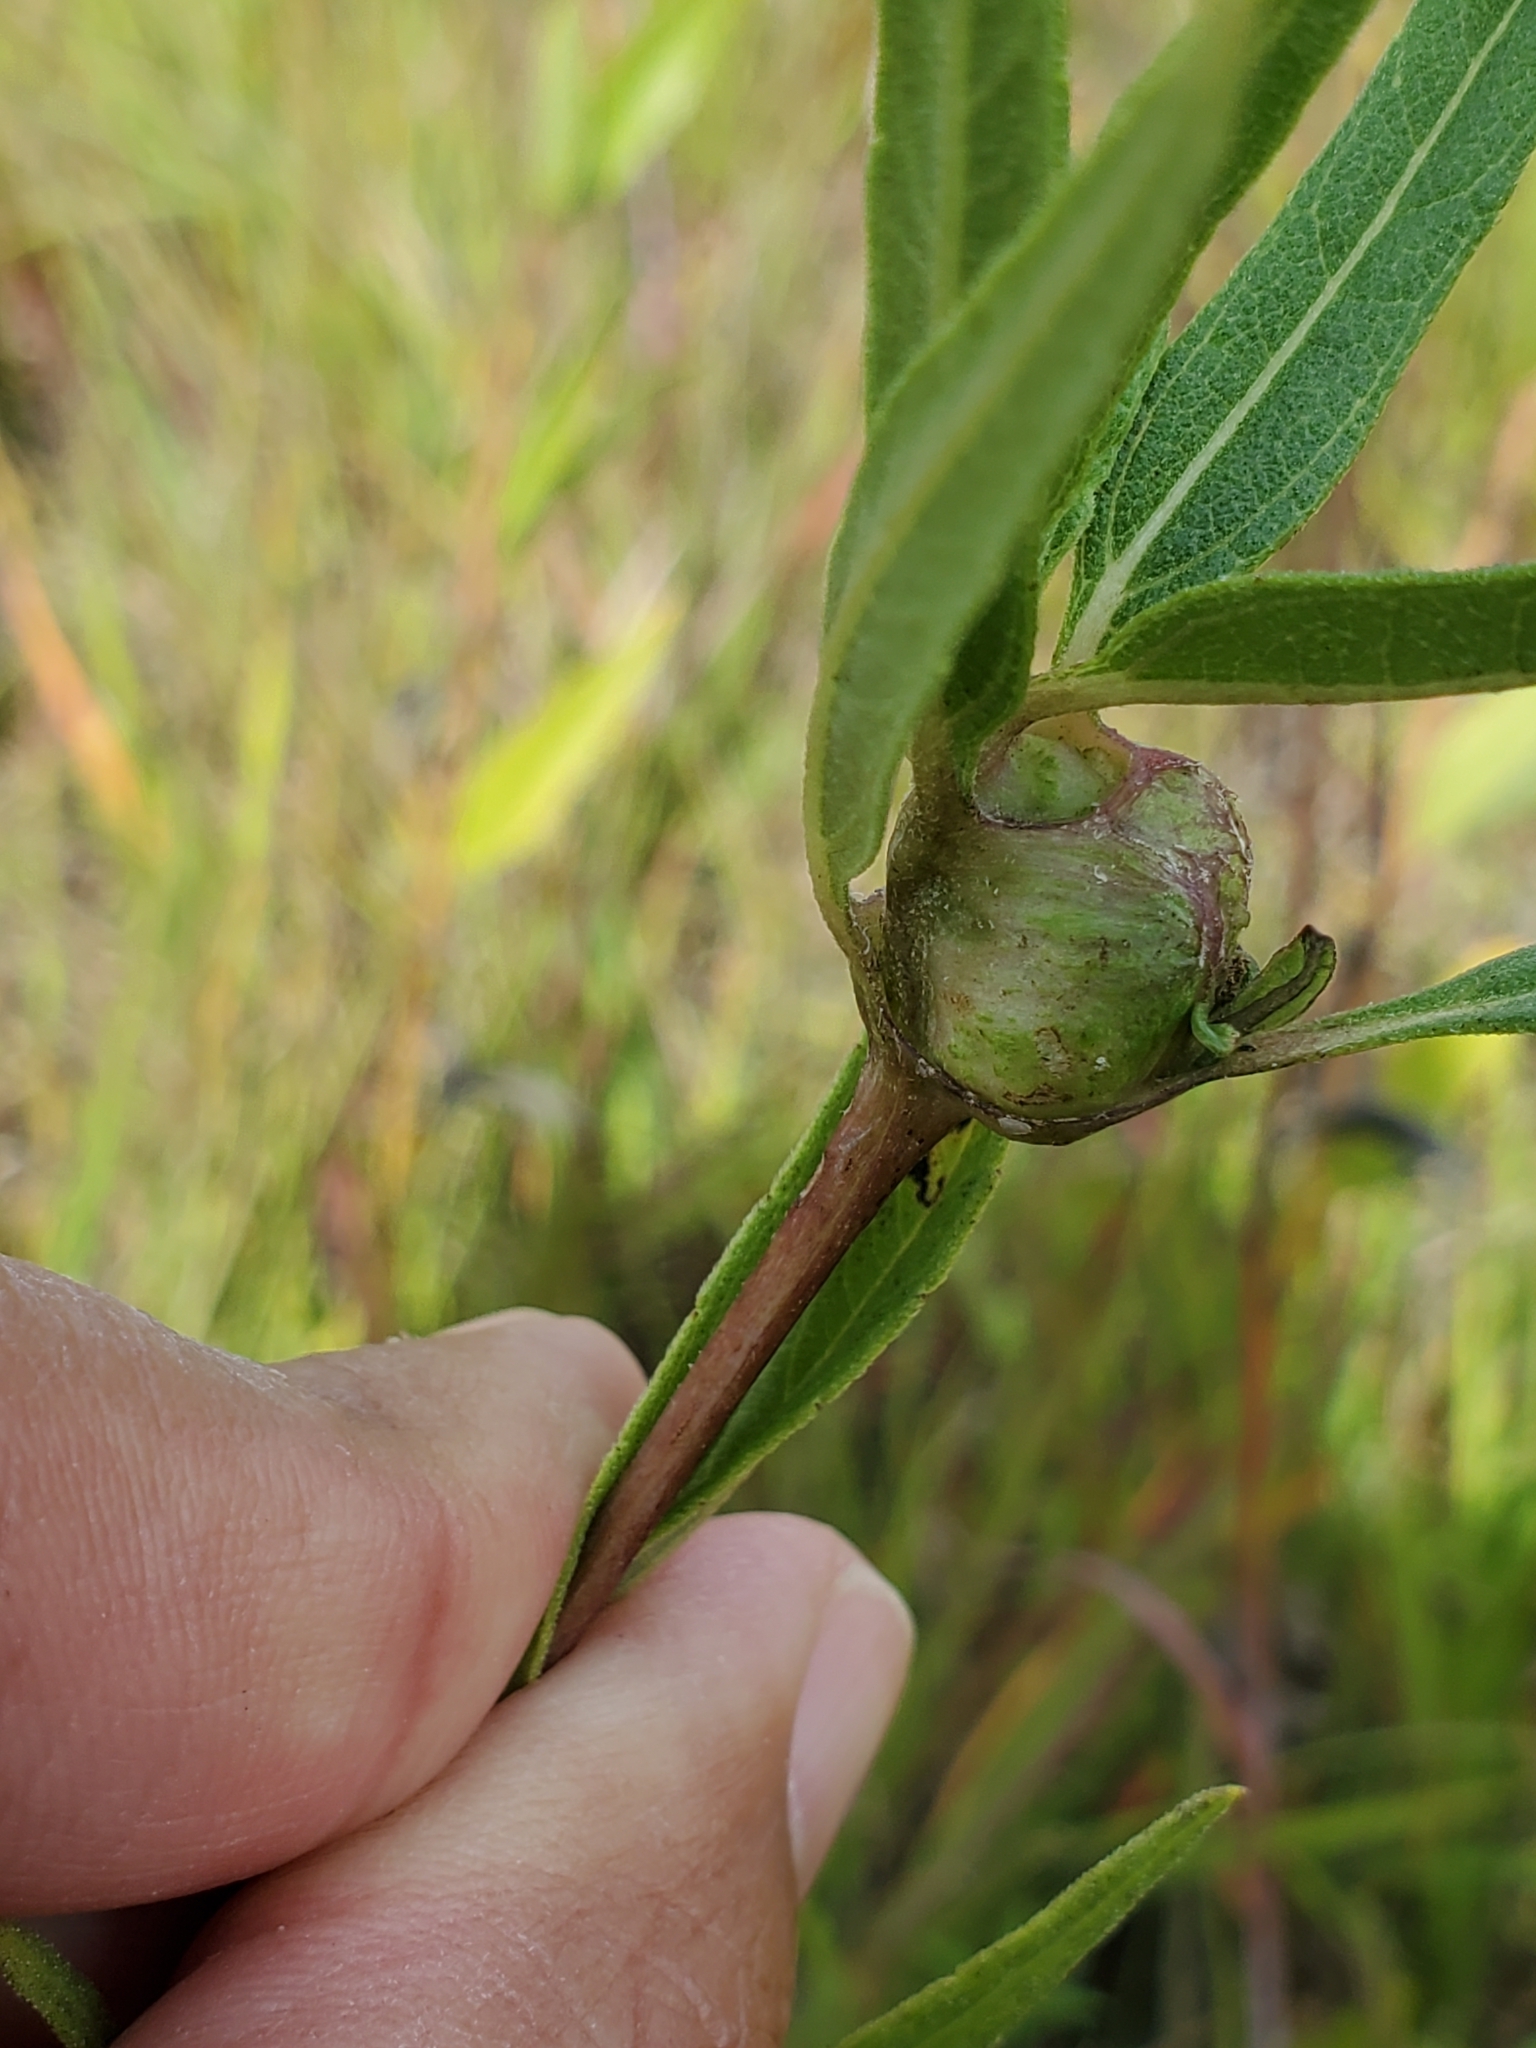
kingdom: Animalia
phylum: Arthropoda
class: Insecta
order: Diptera
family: Cecidomyiidae
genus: Asphondylia
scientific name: Asphondylia helianthiglobulus
